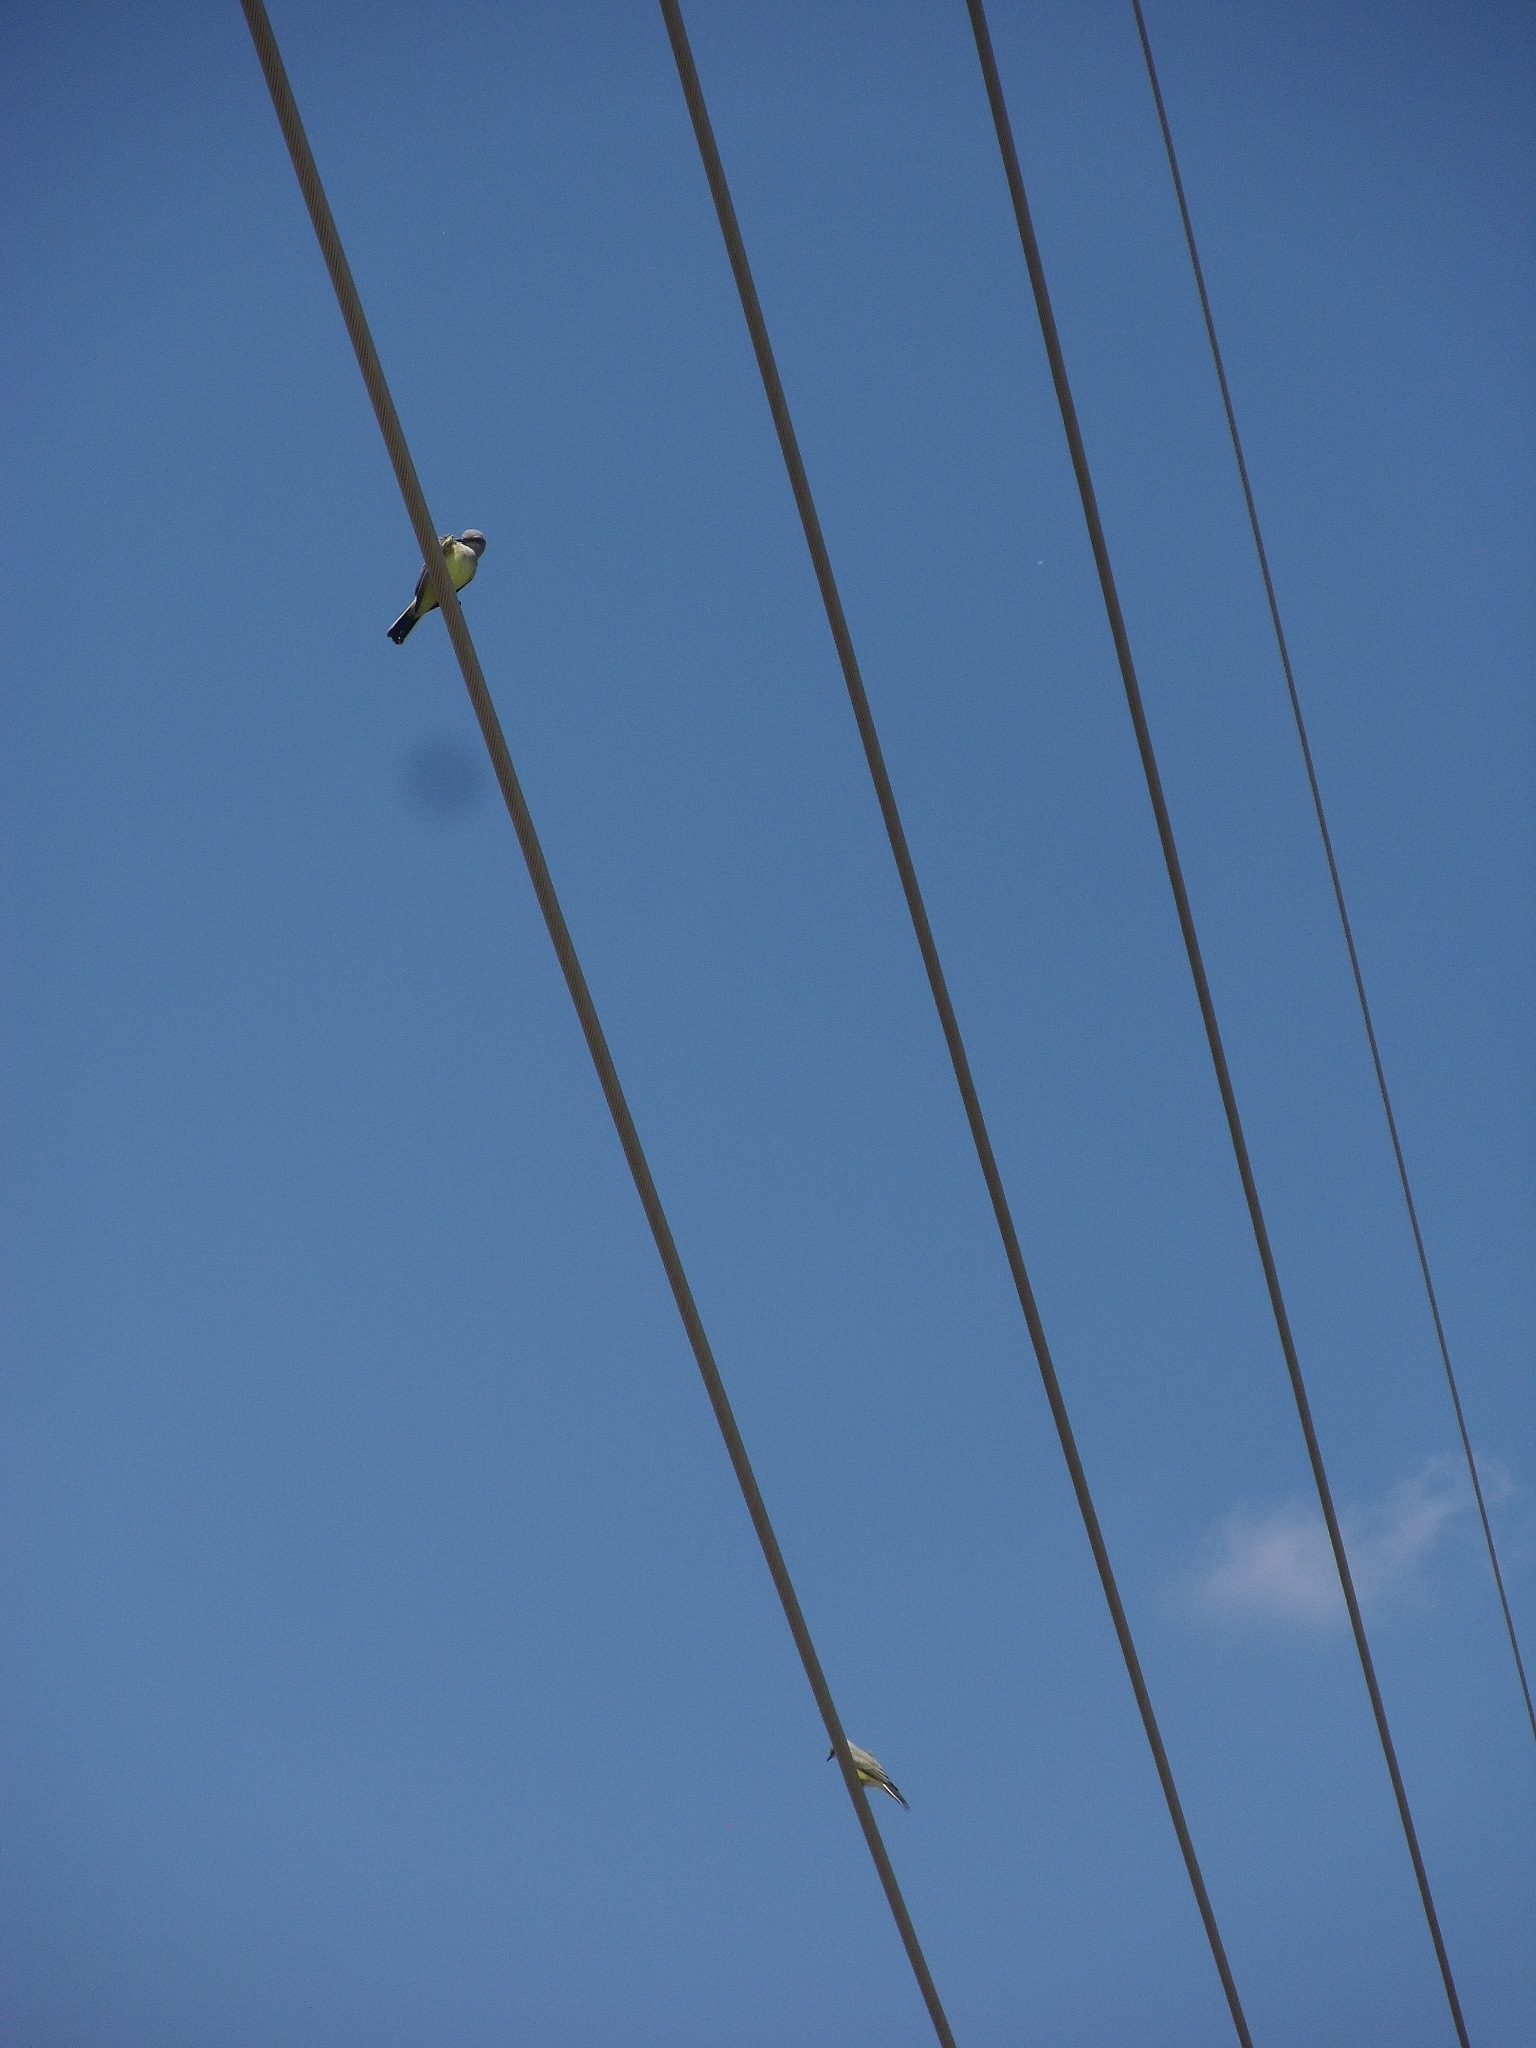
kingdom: Animalia
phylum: Chordata
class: Aves
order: Passeriformes
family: Tyrannidae
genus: Tyrannus
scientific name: Tyrannus verticalis
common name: Western kingbird
